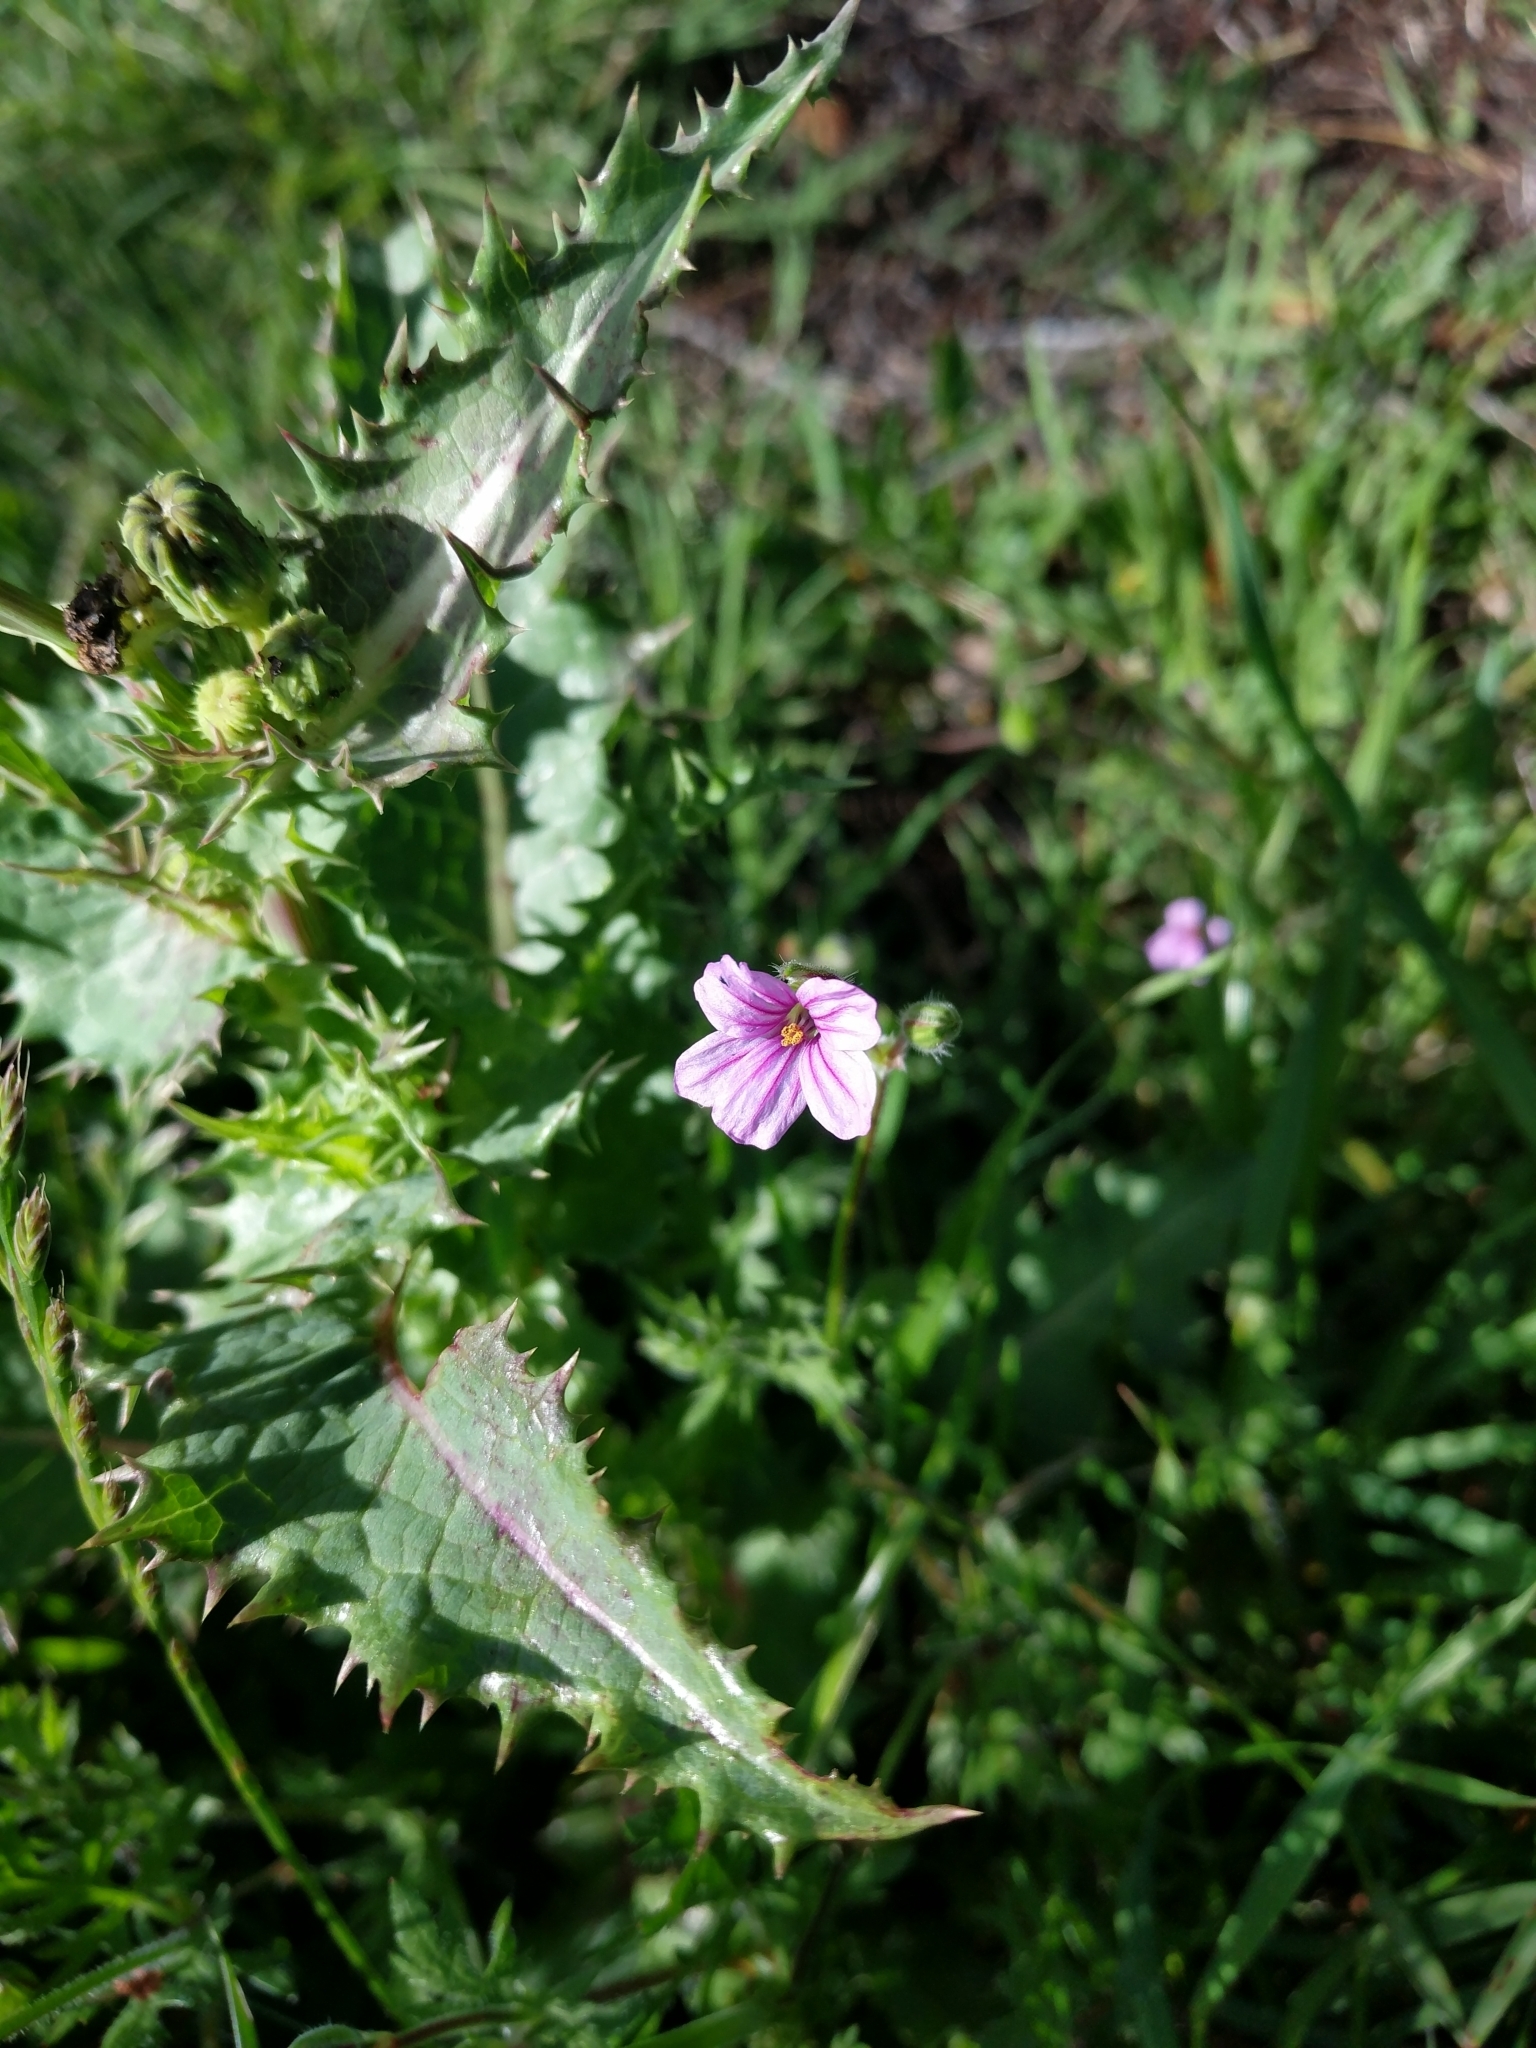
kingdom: Plantae
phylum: Tracheophyta
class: Magnoliopsida
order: Geraniales
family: Geraniaceae
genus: Erodium
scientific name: Erodium botrys
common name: Mediterranean stork's-bill
